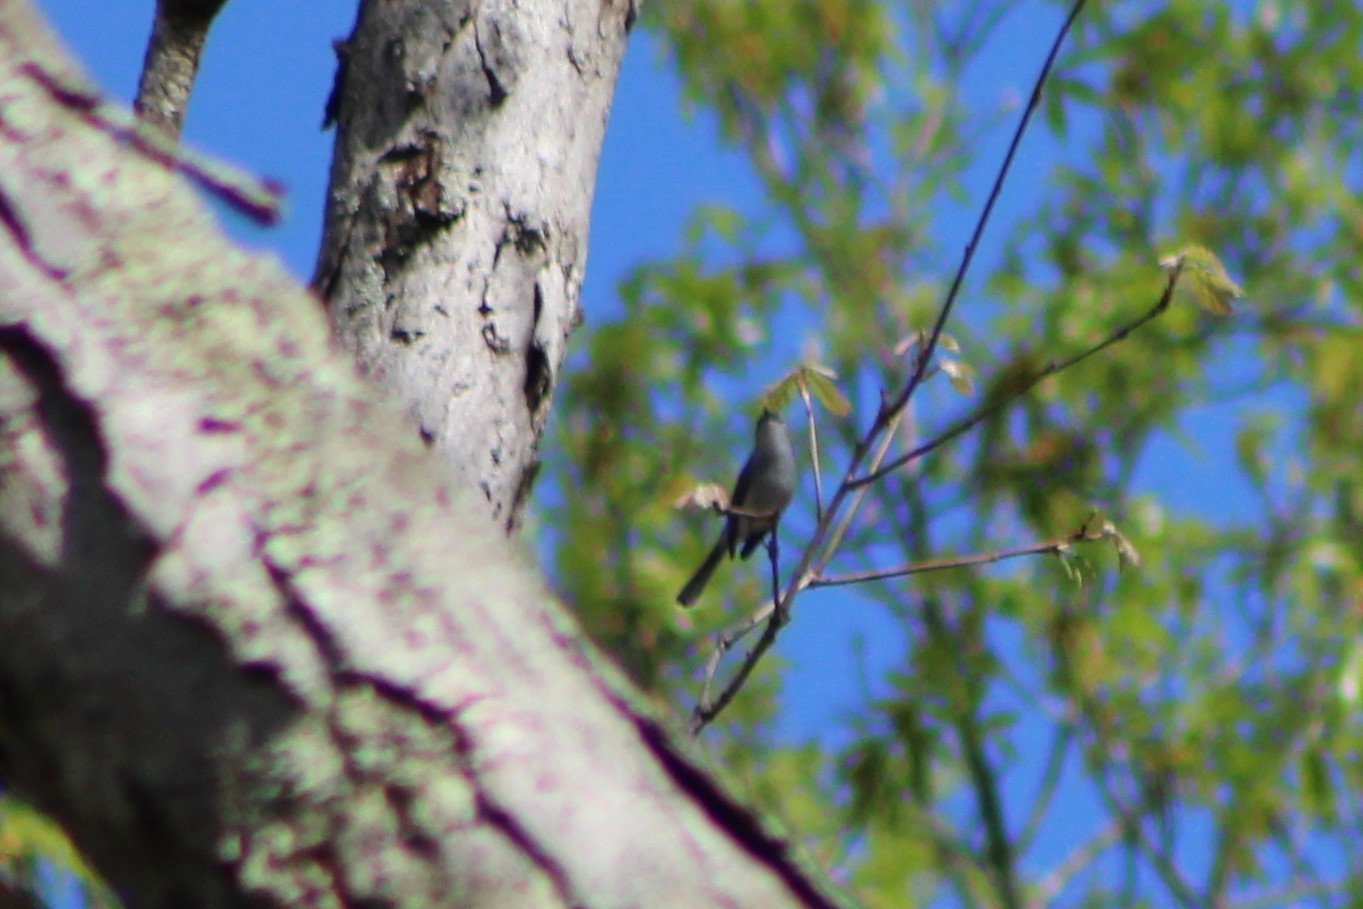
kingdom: Animalia
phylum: Chordata
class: Aves
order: Passeriformes
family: Polioptilidae
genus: Polioptila
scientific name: Polioptila caerulea
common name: Blue-gray gnatcatcher
